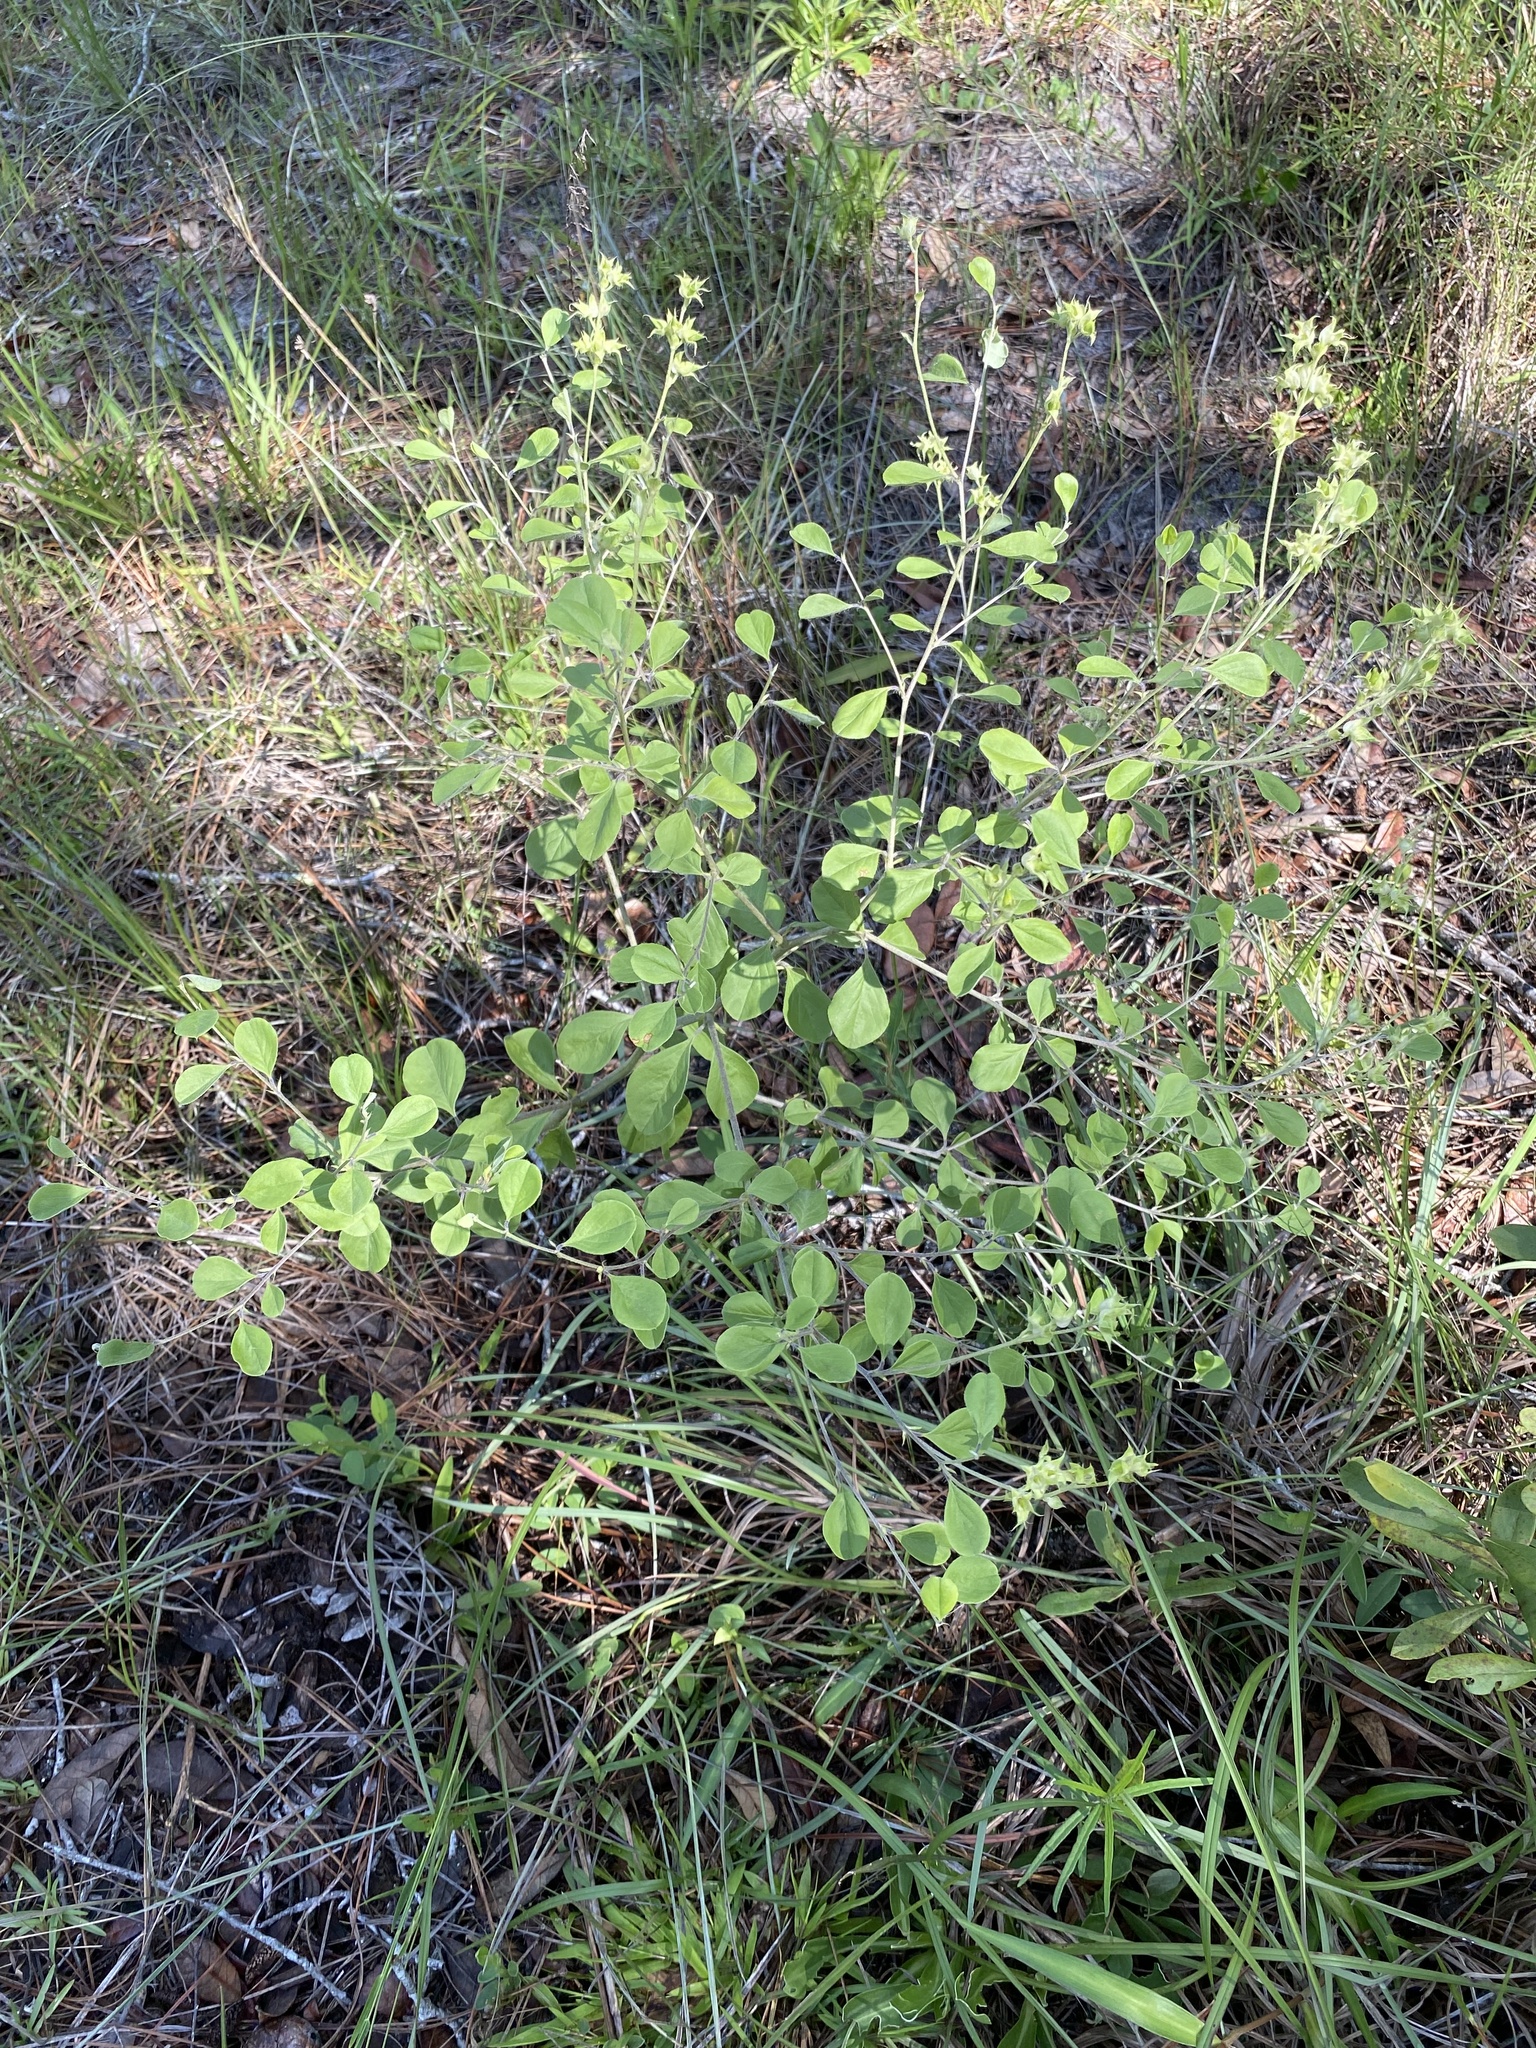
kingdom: Plantae
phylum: Tracheophyta
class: Magnoliopsida
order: Fabales
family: Fabaceae
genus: Pediomelum
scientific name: Pediomelum canescens
